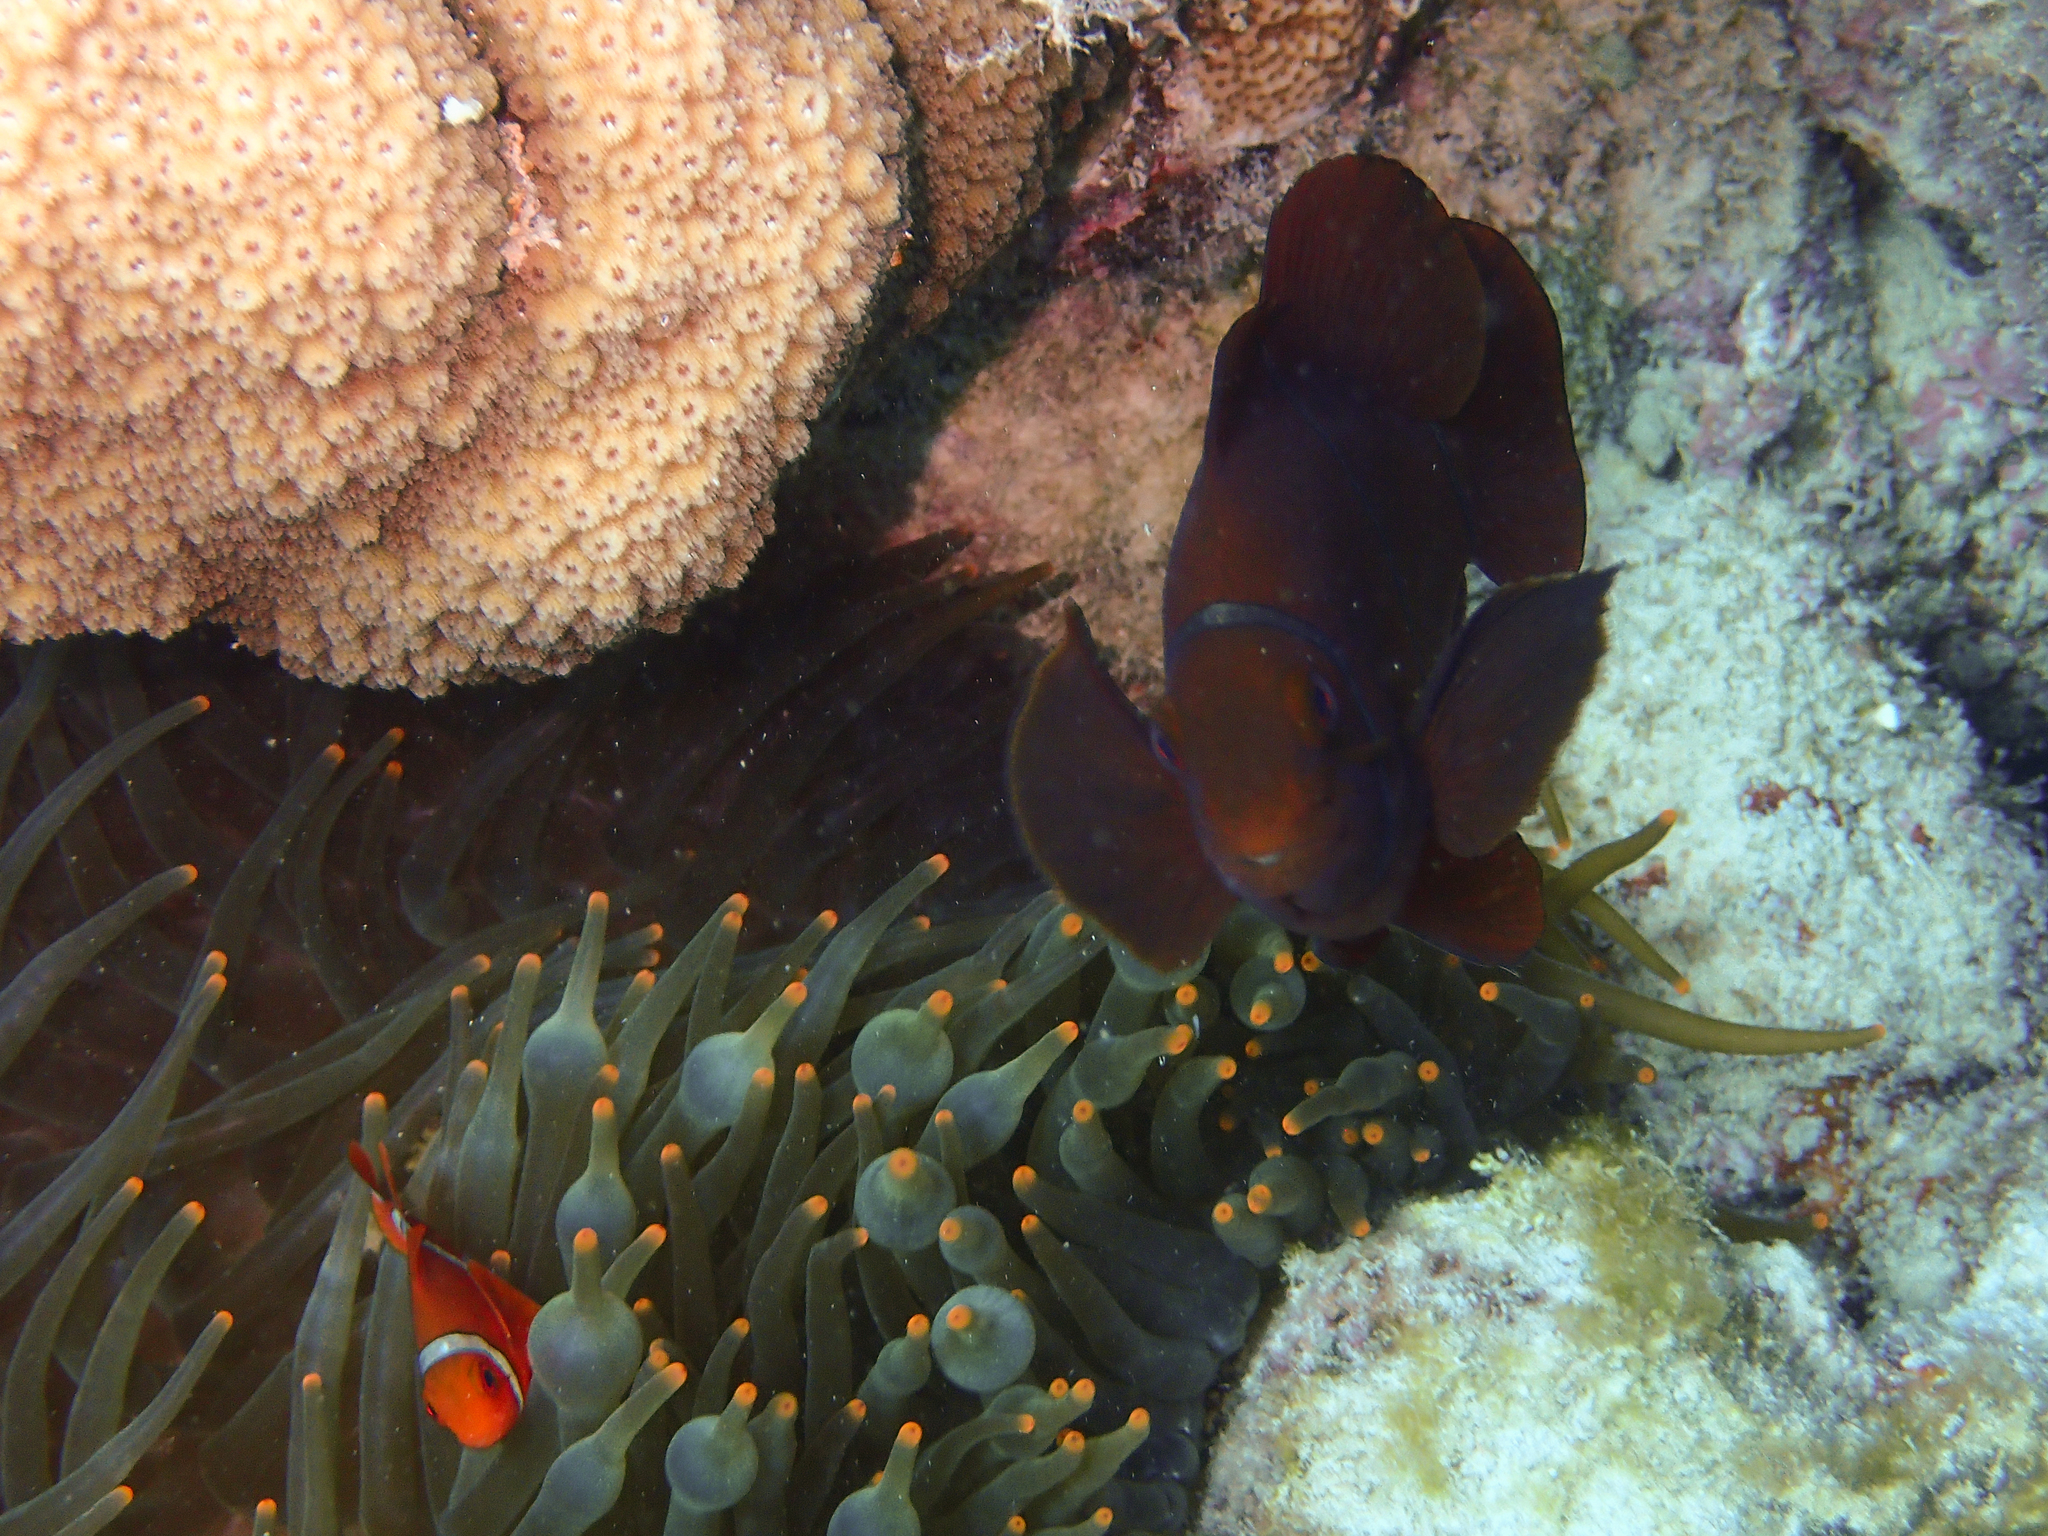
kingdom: Animalia
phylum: Chordata
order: Perciformes
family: Pomacentridae
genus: Premnas
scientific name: Premnas biaculeatus
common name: Spinecheek anemonefish
